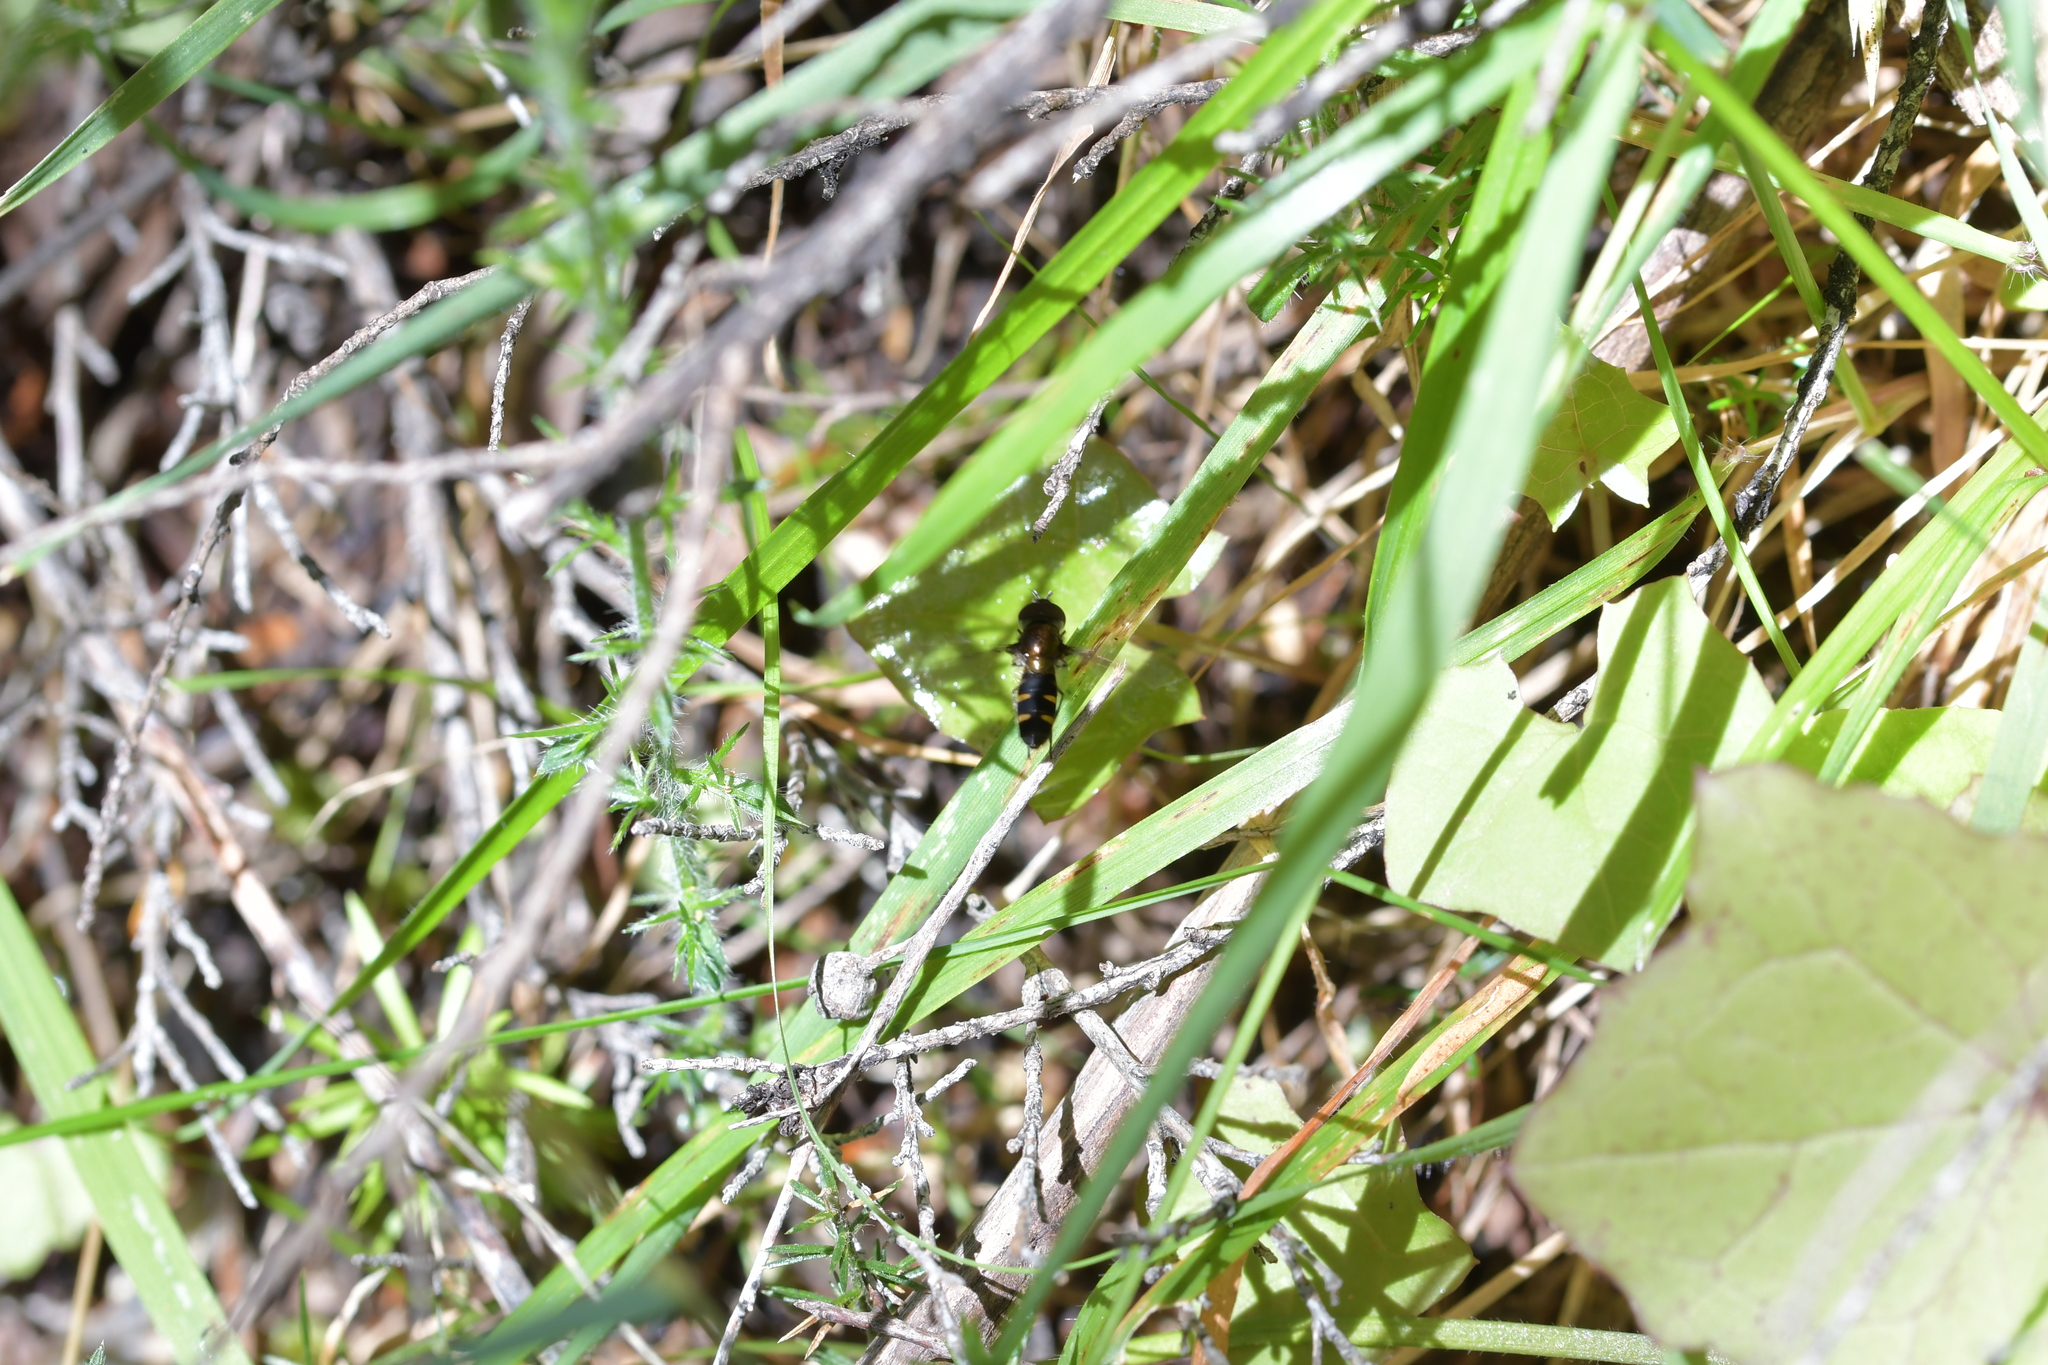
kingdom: Animalia
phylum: Arthropoda
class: Insecta
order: Diptera
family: Syrphidae
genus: Melangyna
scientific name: Melangyna novaezelandiae
